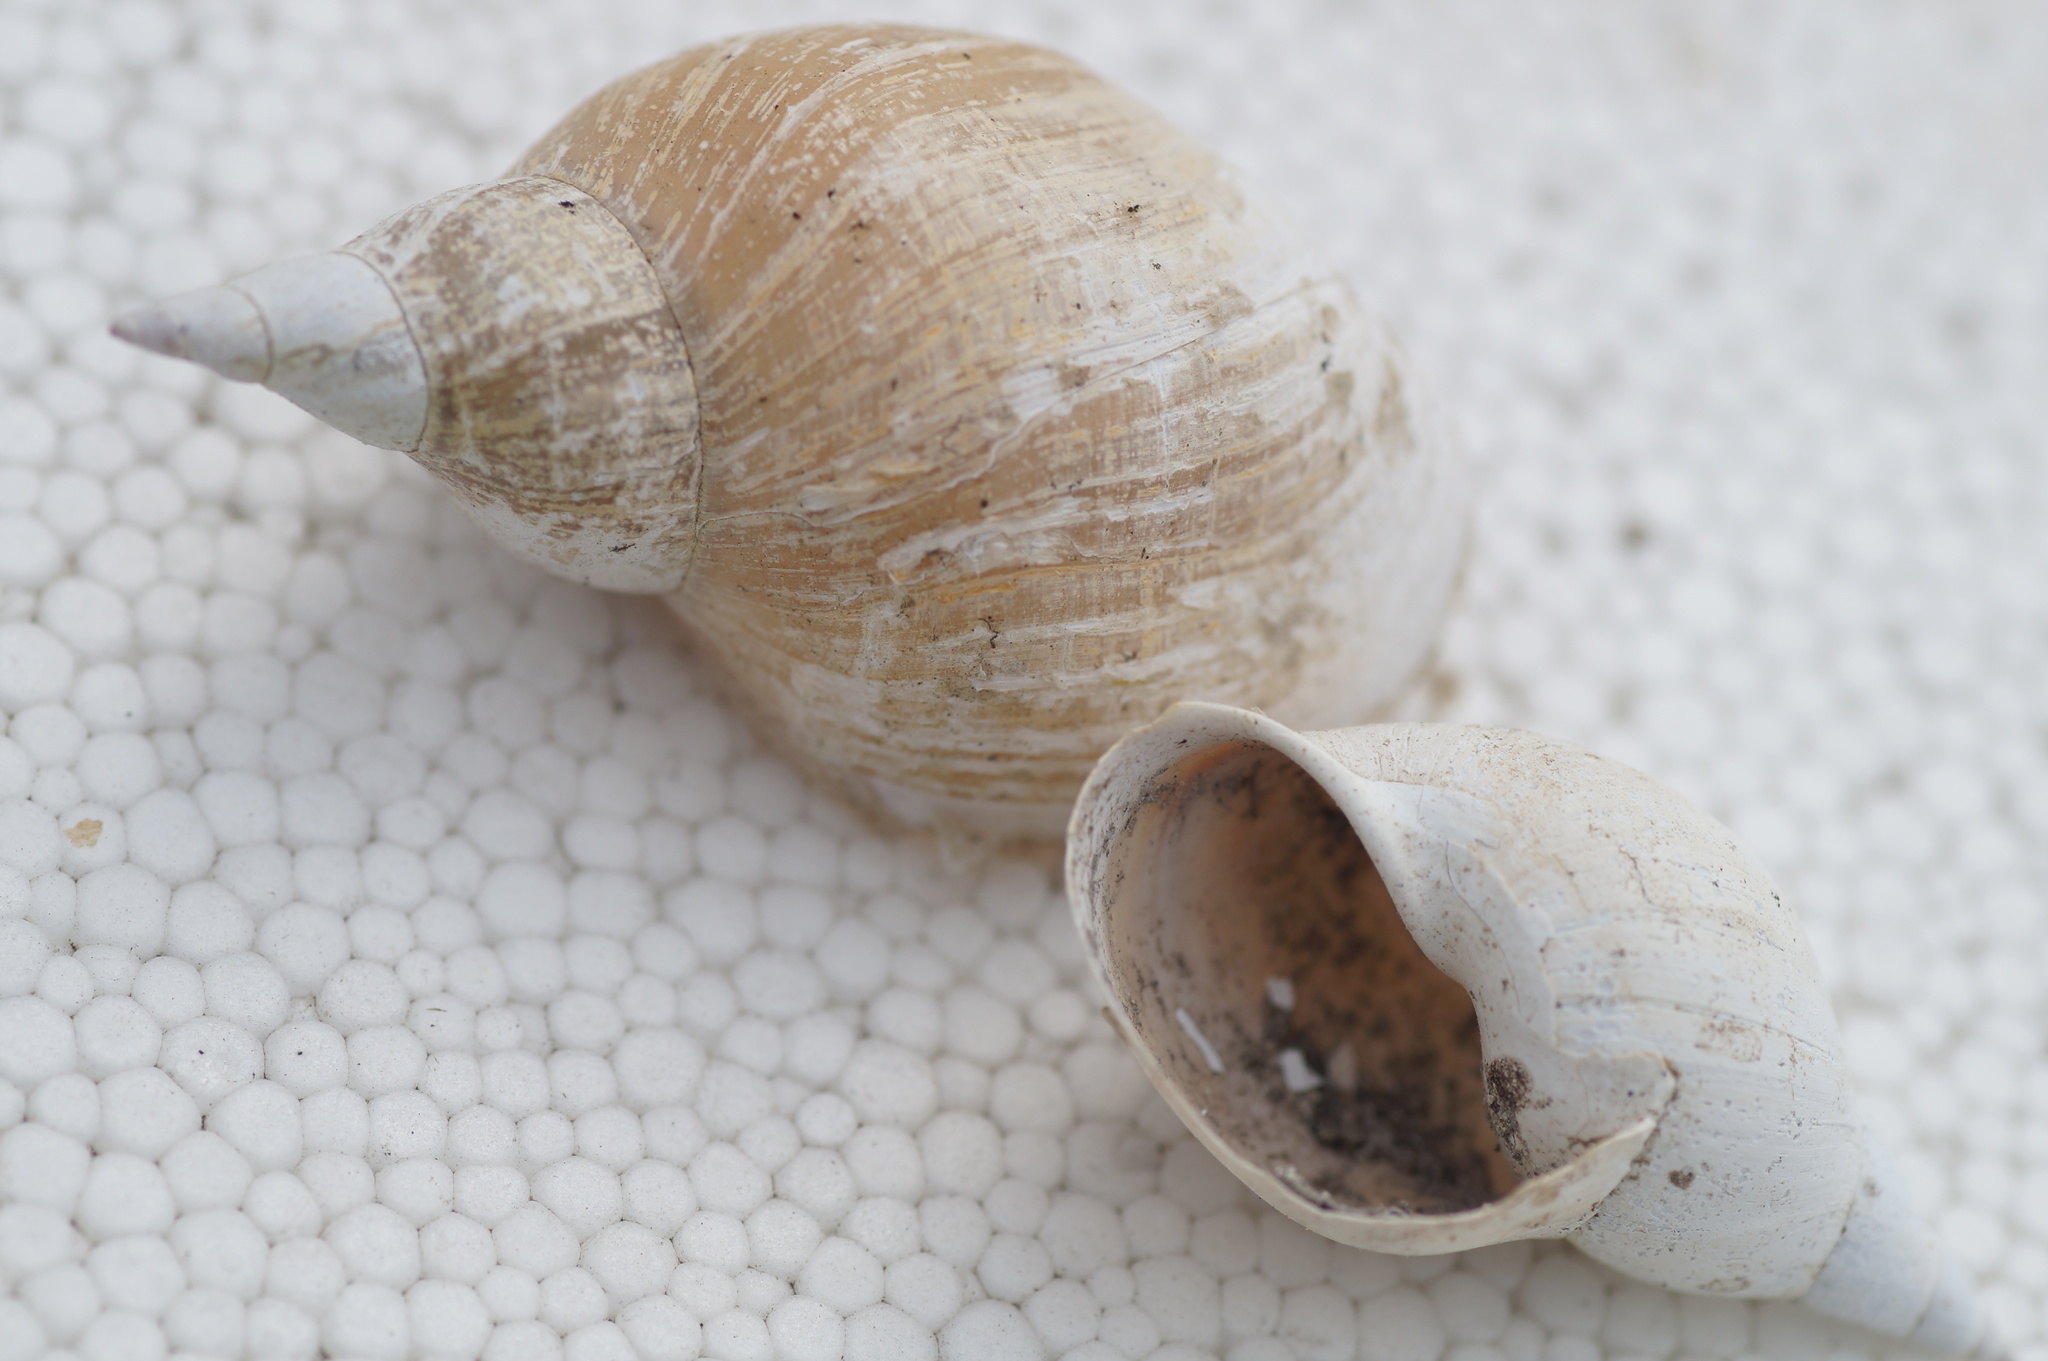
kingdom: Animalia
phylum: Mollusca
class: Gastropoda
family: Lymnaeidae
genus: Lymnaea
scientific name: Lymnaea stagnalis
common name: Great pond snail
